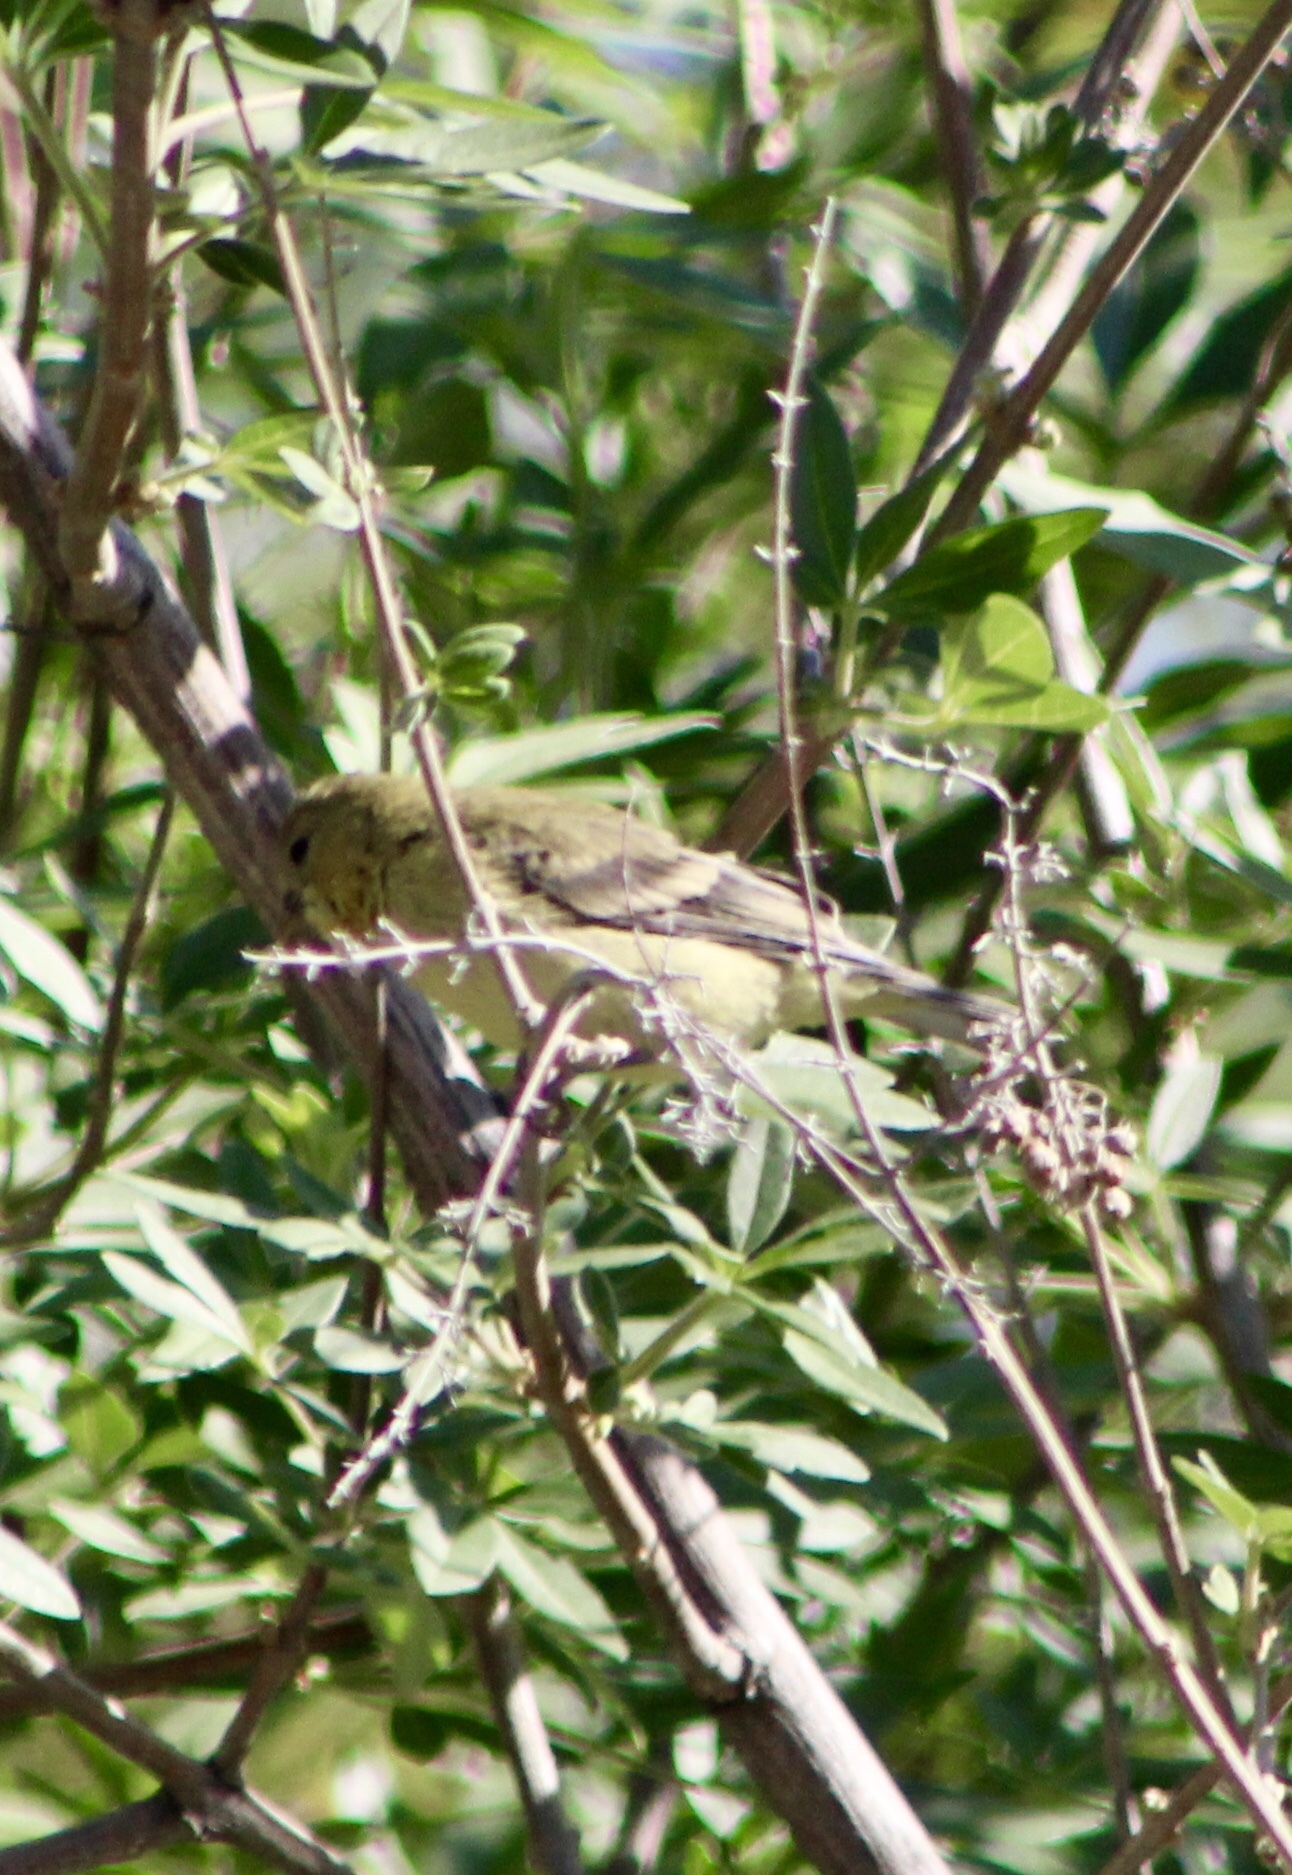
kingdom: Animalia
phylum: Chordata
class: Aves
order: Passeriformes
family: Fringillidae
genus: Spinus
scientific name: Spinus psaltria
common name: Lesser goldfinch
